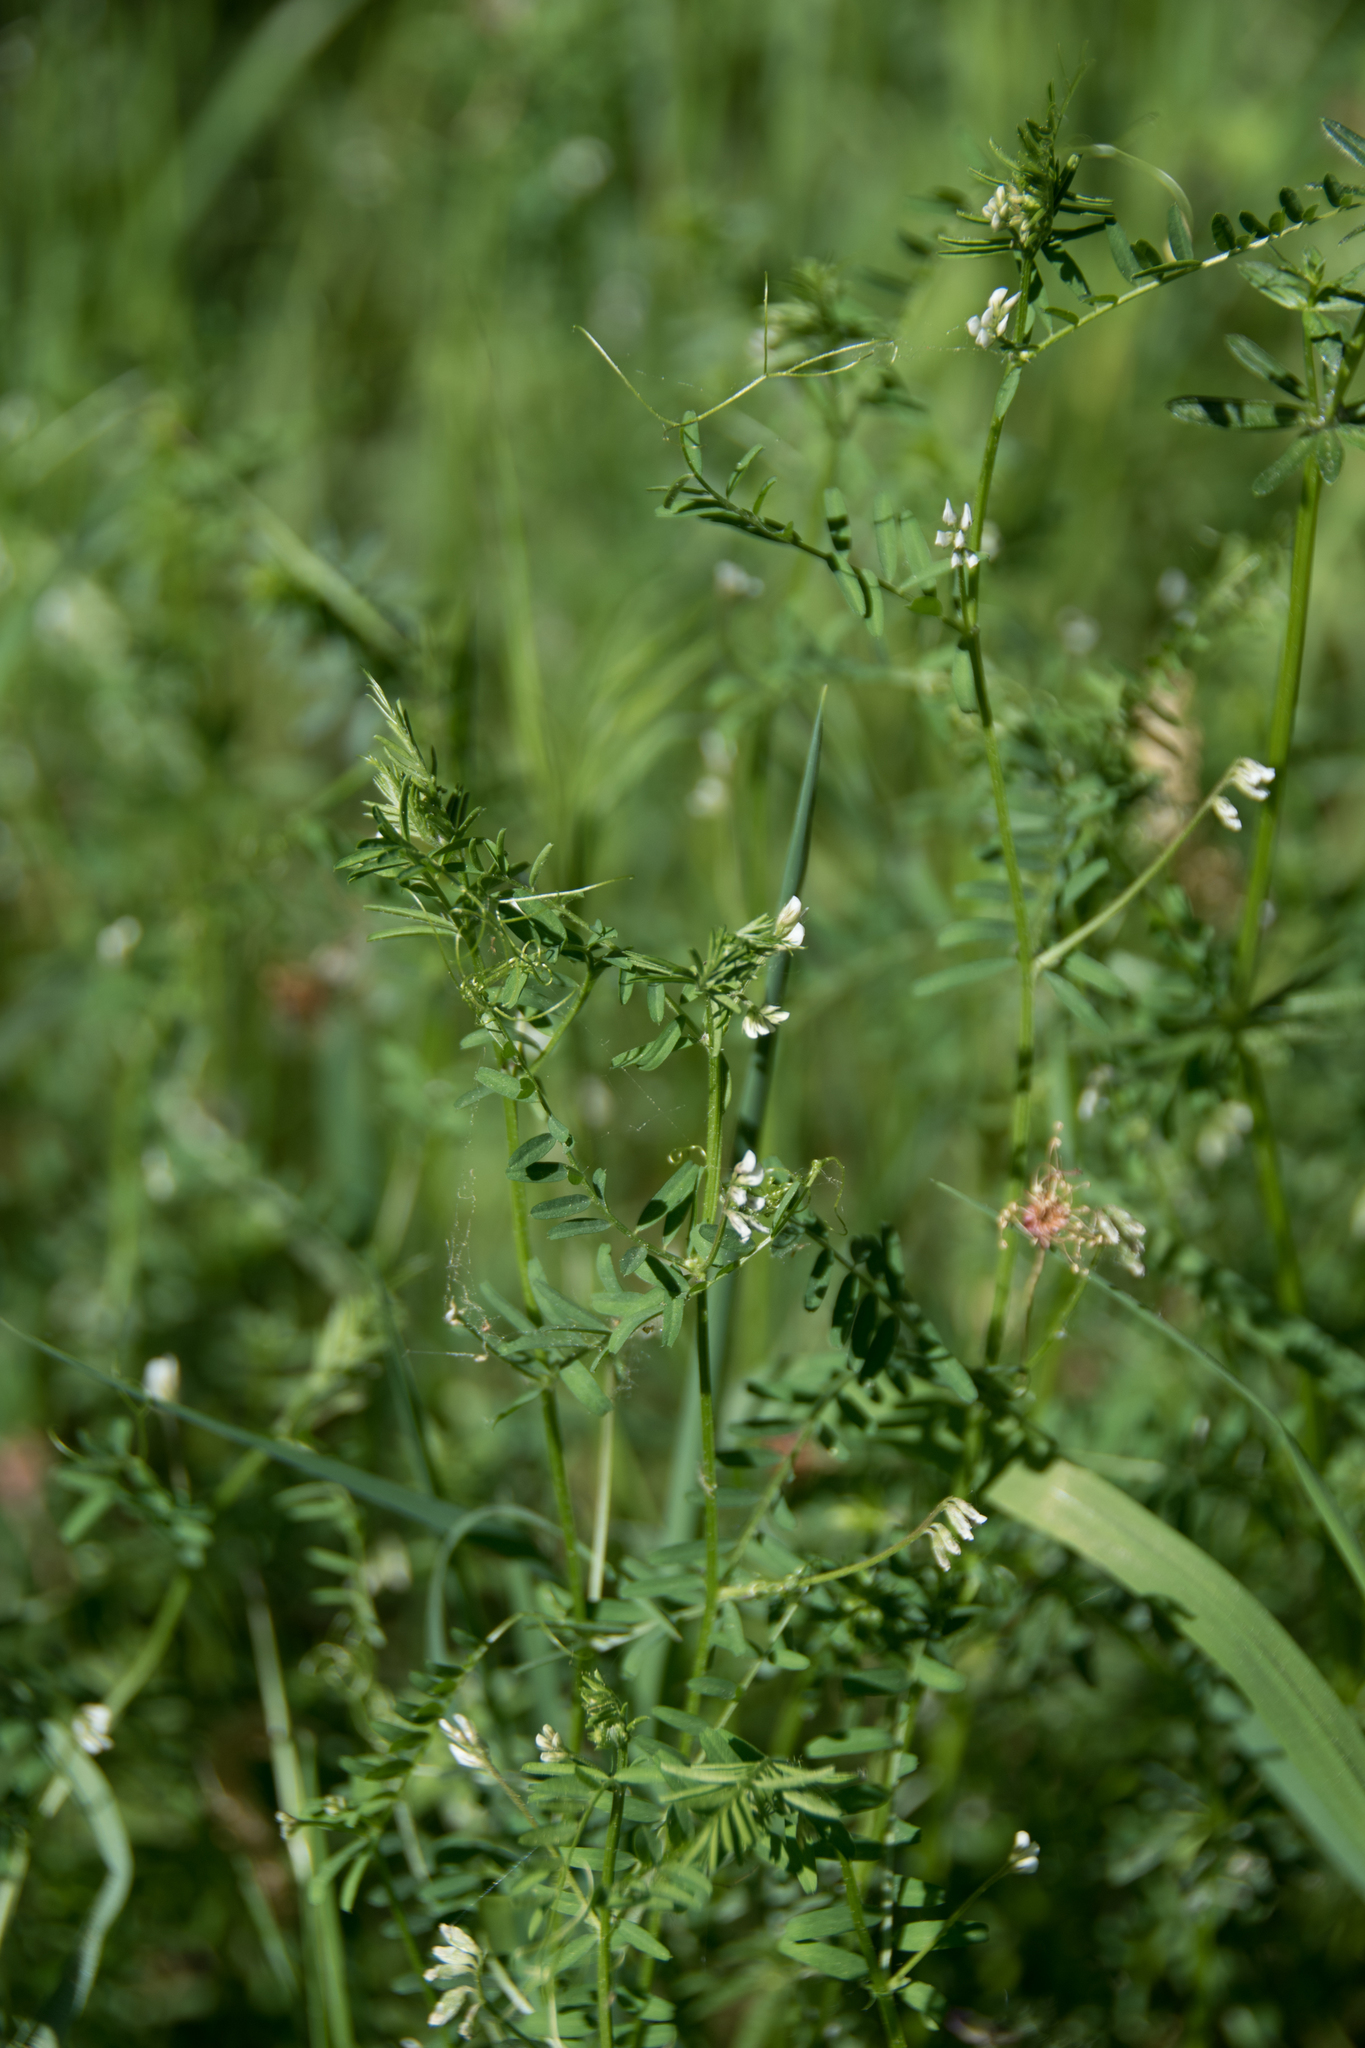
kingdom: Plantae
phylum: Tracheophyta
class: Magnoliopsida
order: Fabales
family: Fabaceae
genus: Vicia
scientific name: Vicia hirsuta
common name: Tiny vetch
